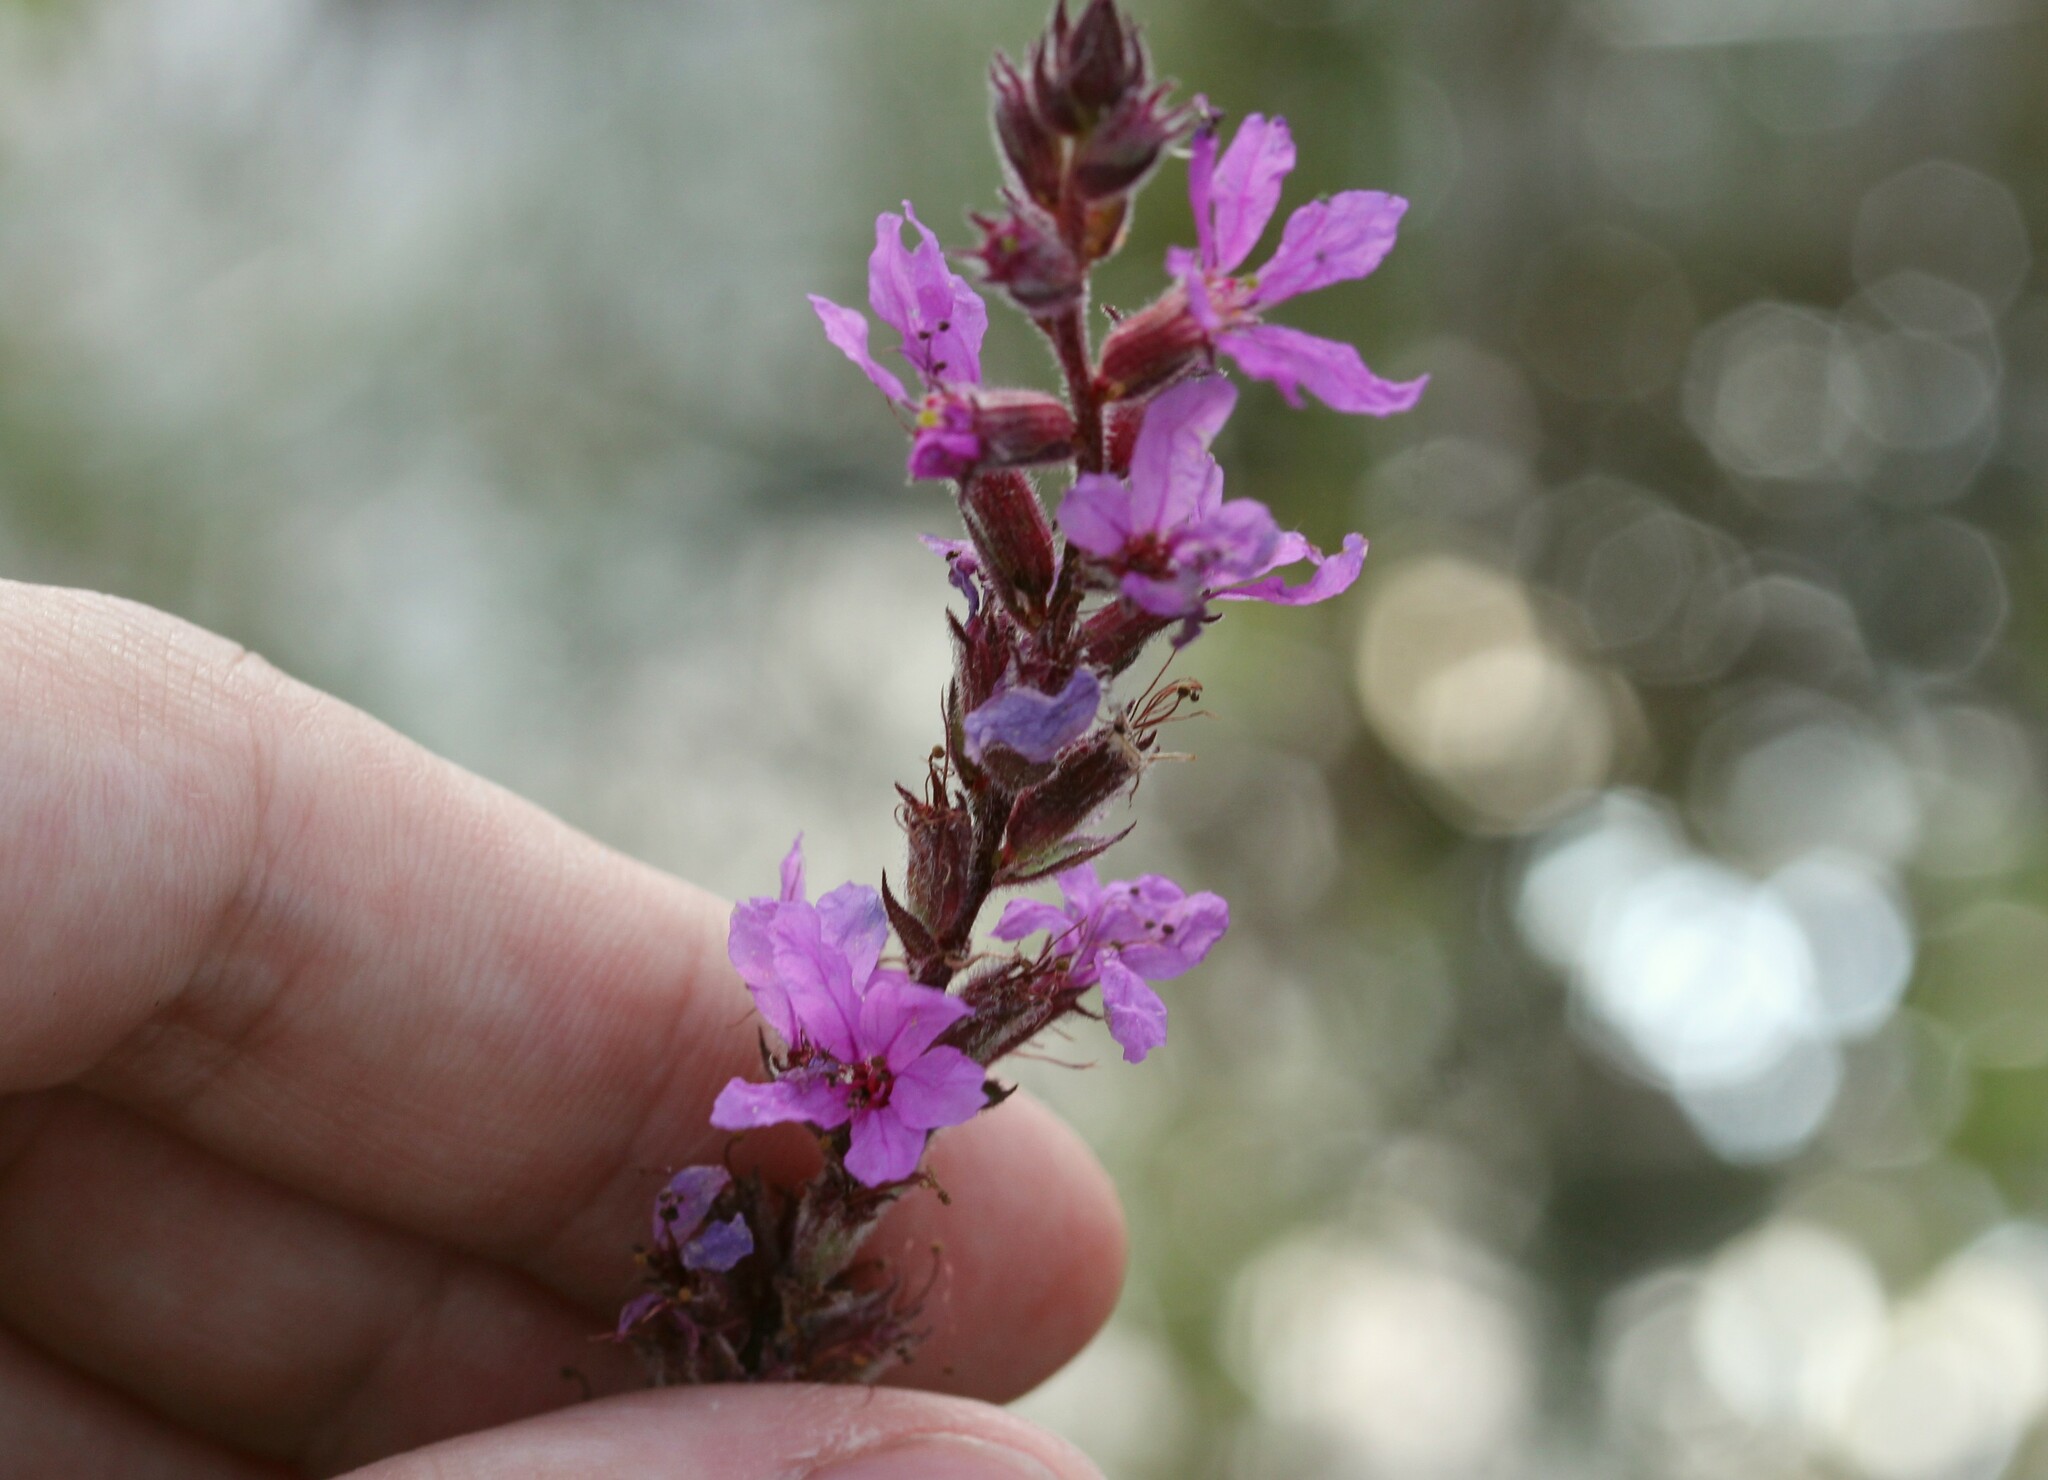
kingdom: Plantae
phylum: Tracheophyta
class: Magnoliopsida
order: Myrtales
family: Lythraceae
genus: Lythrum
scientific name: Lythrum salicaria
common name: Purple loosestrife
